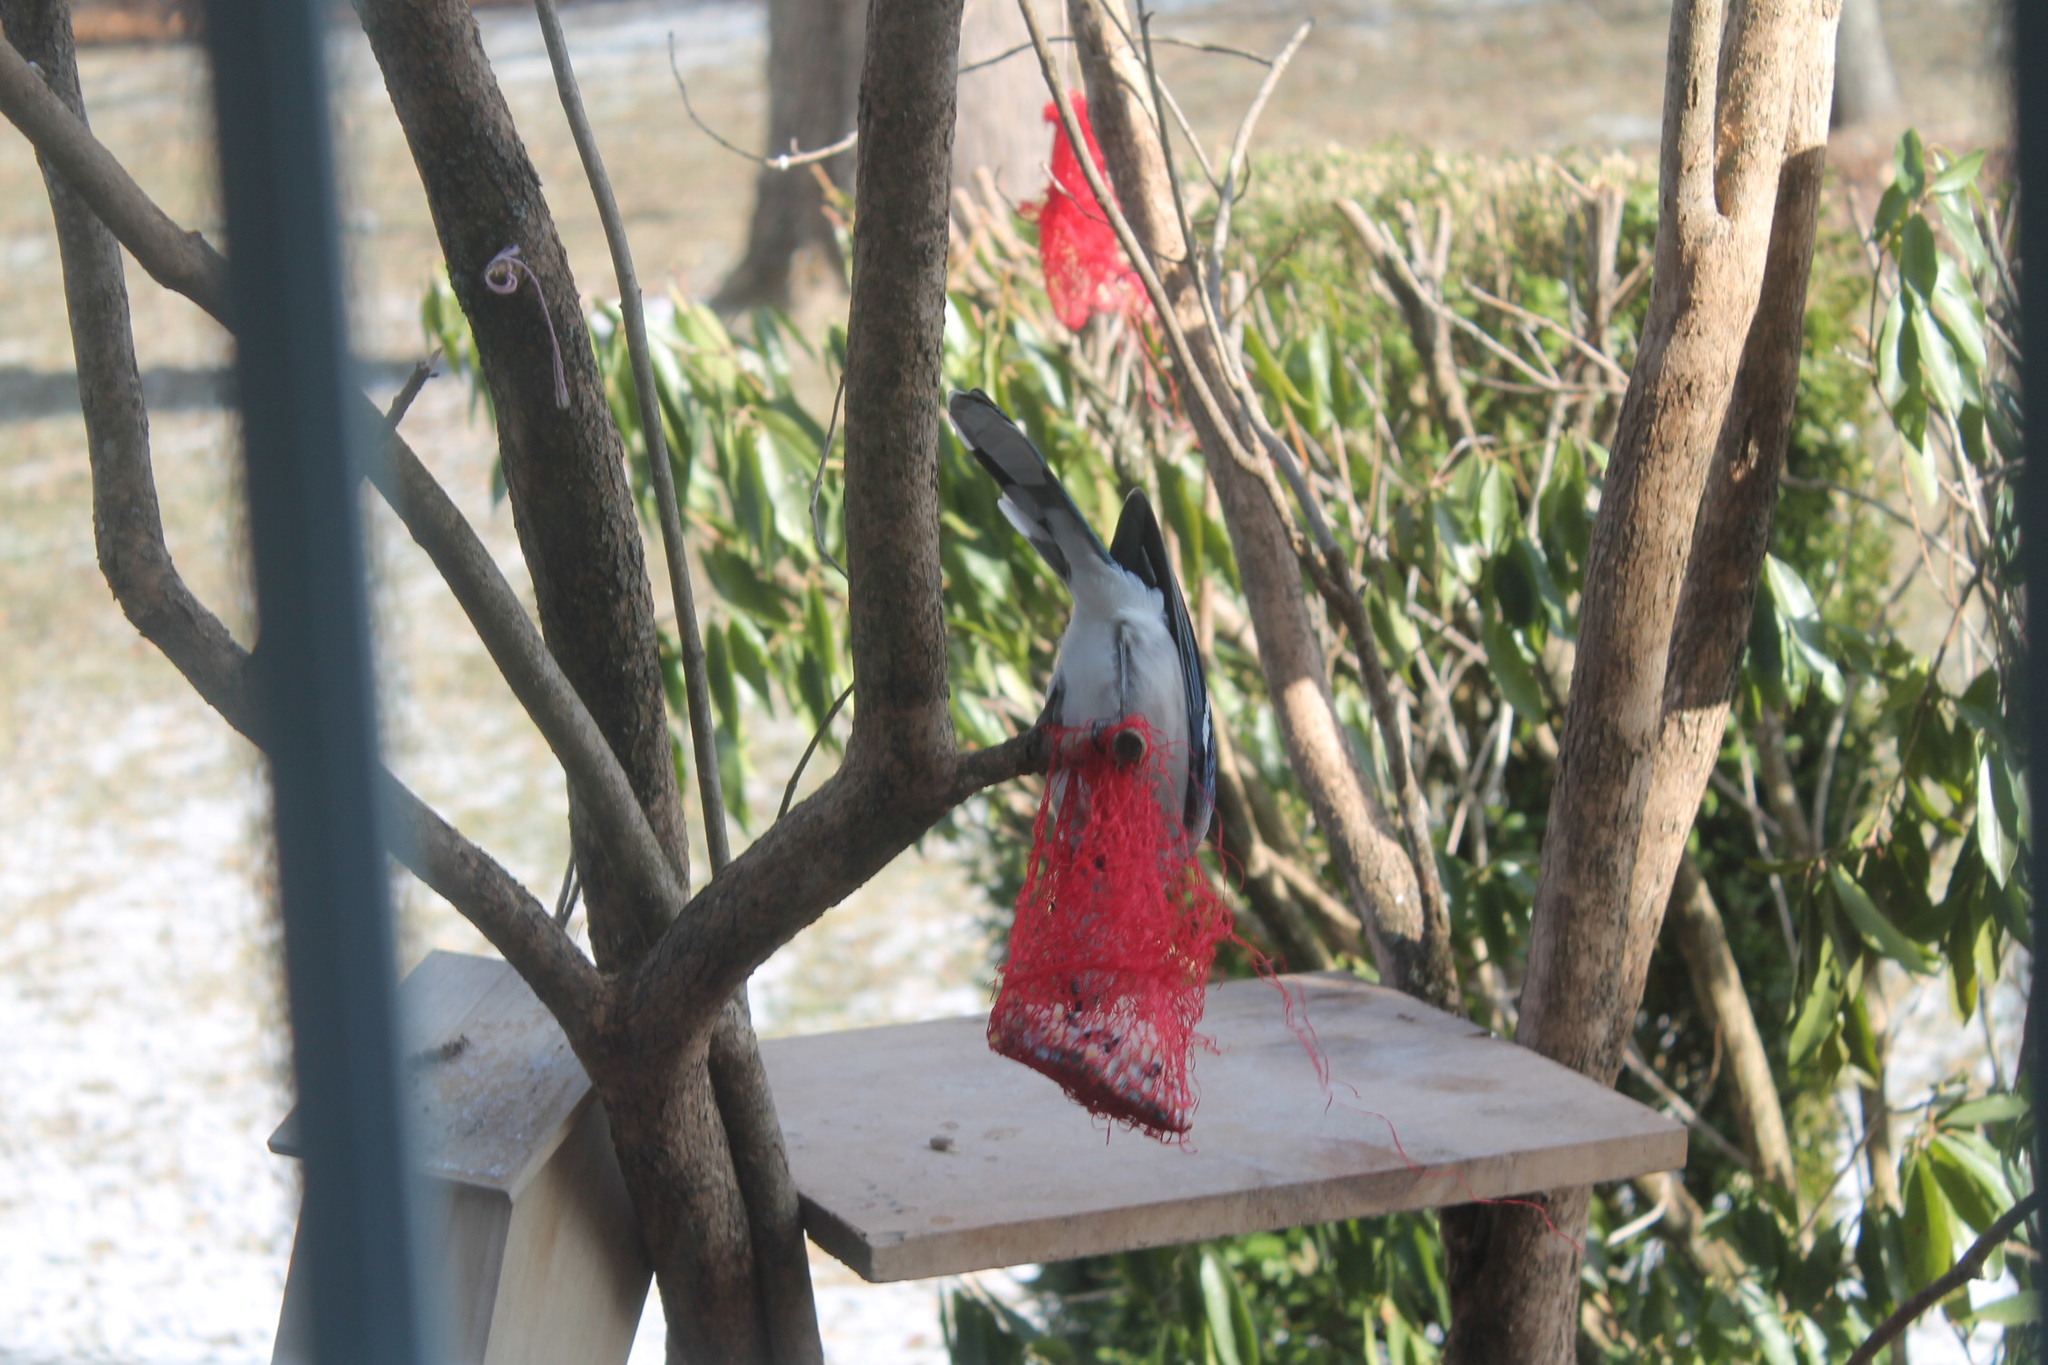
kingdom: Animalia
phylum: Chordata
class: Aves
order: Passeriformes
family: Corvidae
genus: Cyanocitta
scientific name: Cyanocitta cristata
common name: Blue jay
